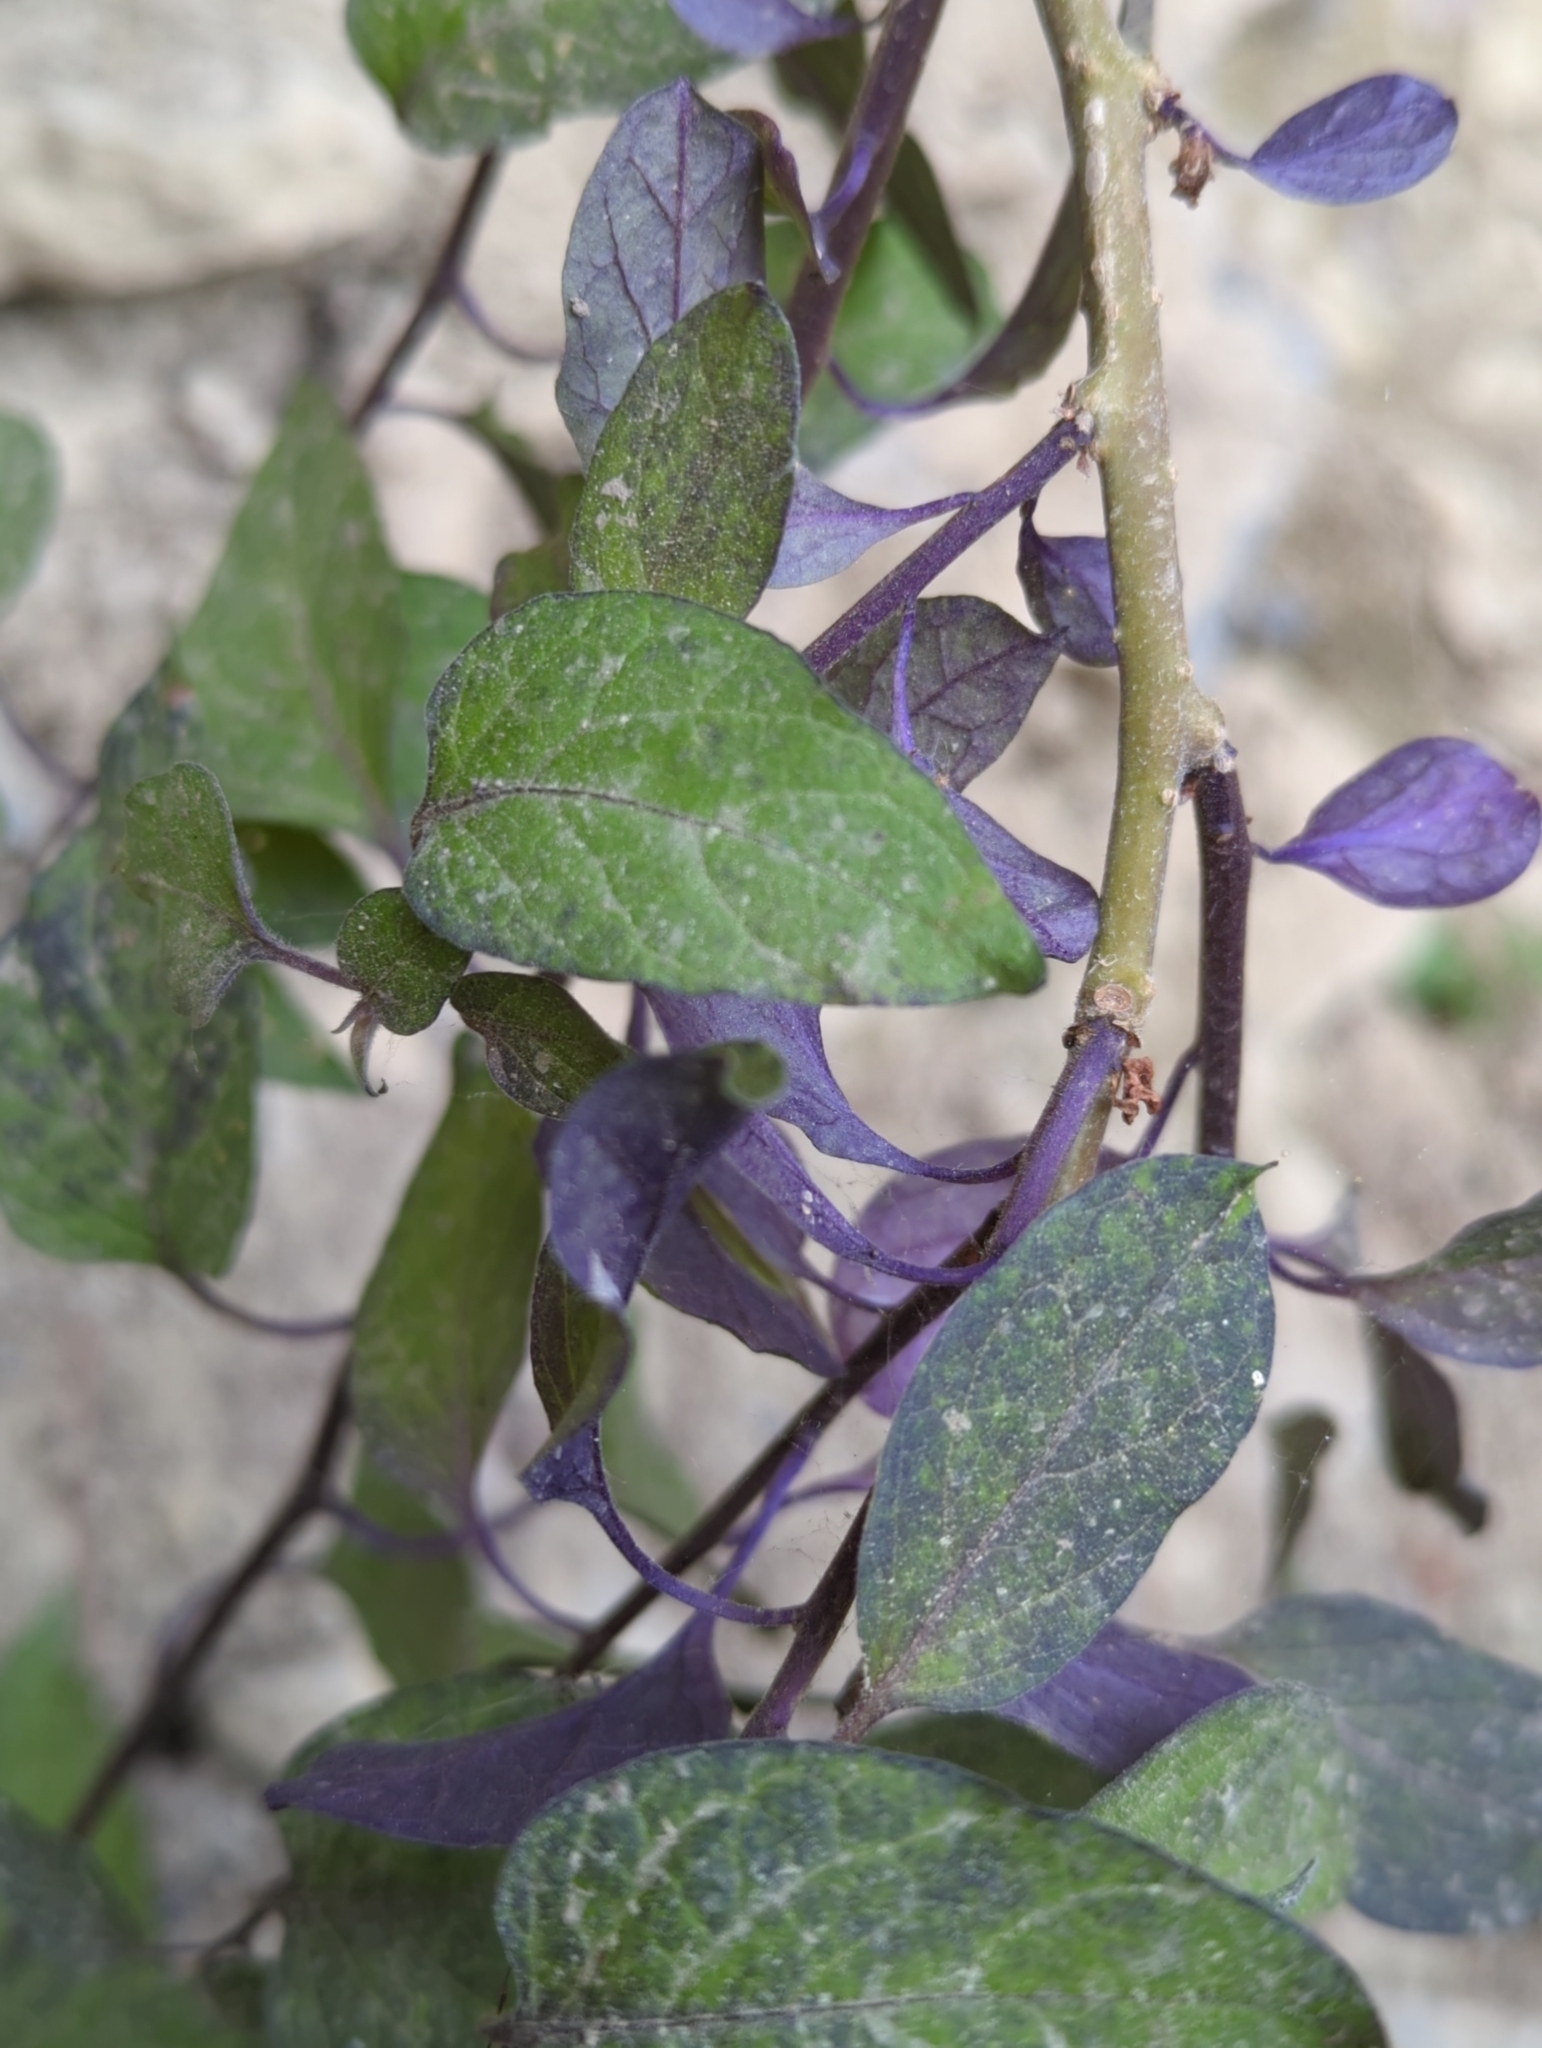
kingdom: Plantae
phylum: Tracheophyta
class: Magnoliopsida
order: Solanales
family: Solanaceae
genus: Solanum
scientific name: Solanum dulcamara
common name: Climbing nightshade
